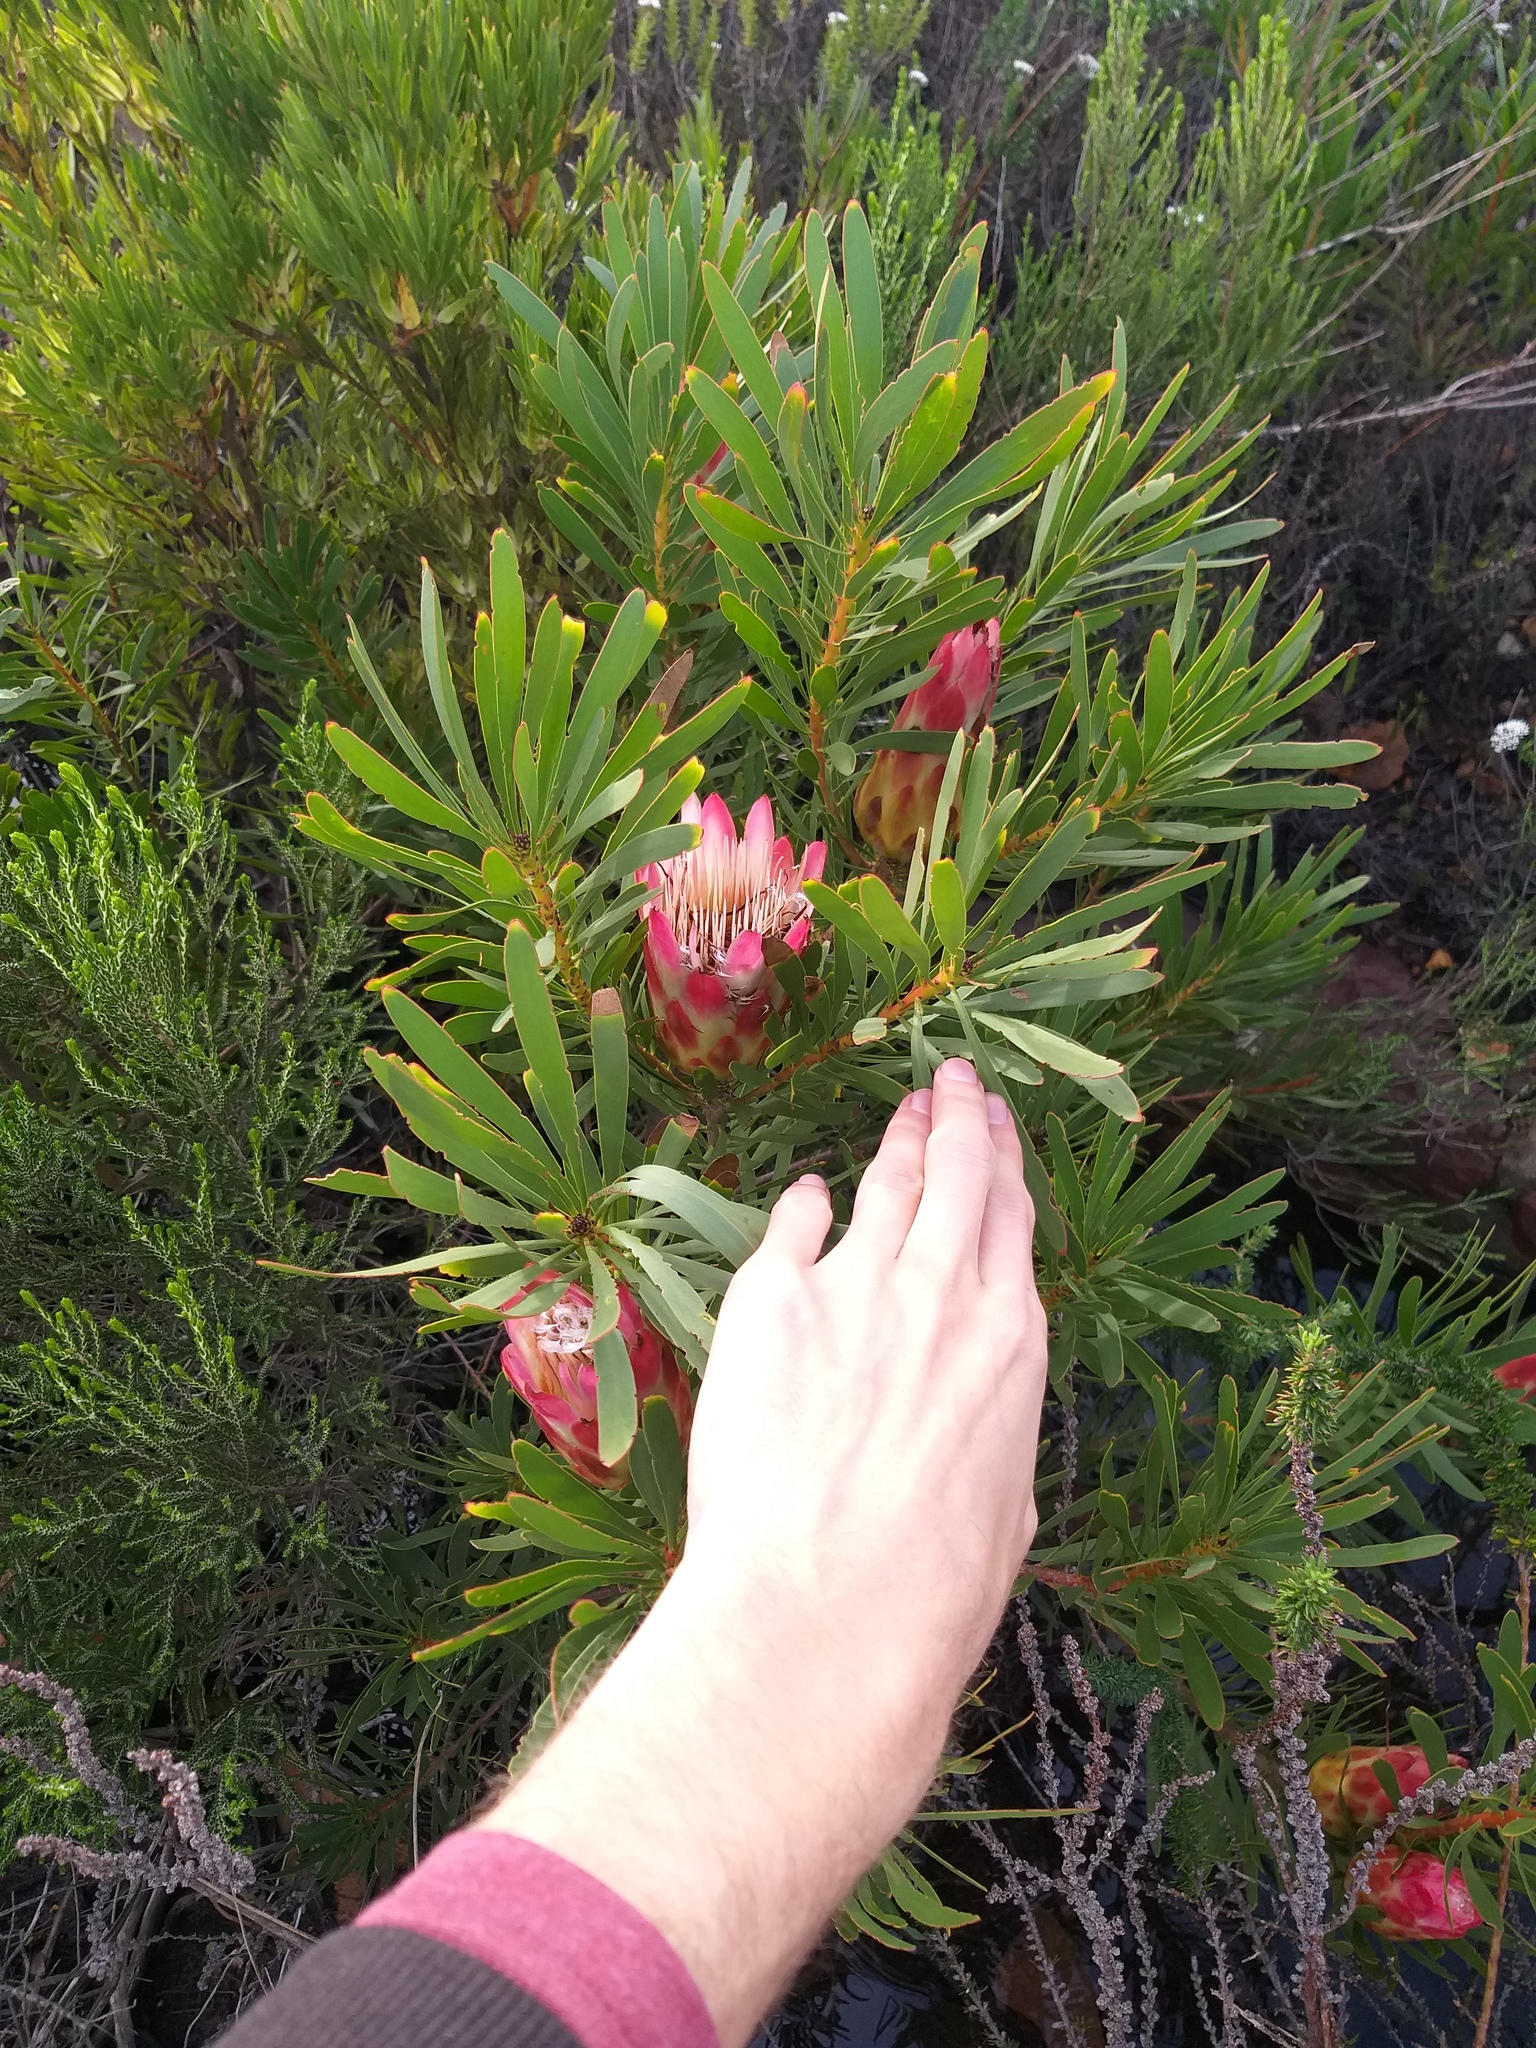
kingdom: Plantae
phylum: Tracheophyta
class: Magnoliopsida
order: Proteales
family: Proteaceae
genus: Protea
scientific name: Protea repens
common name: Sugarbush
